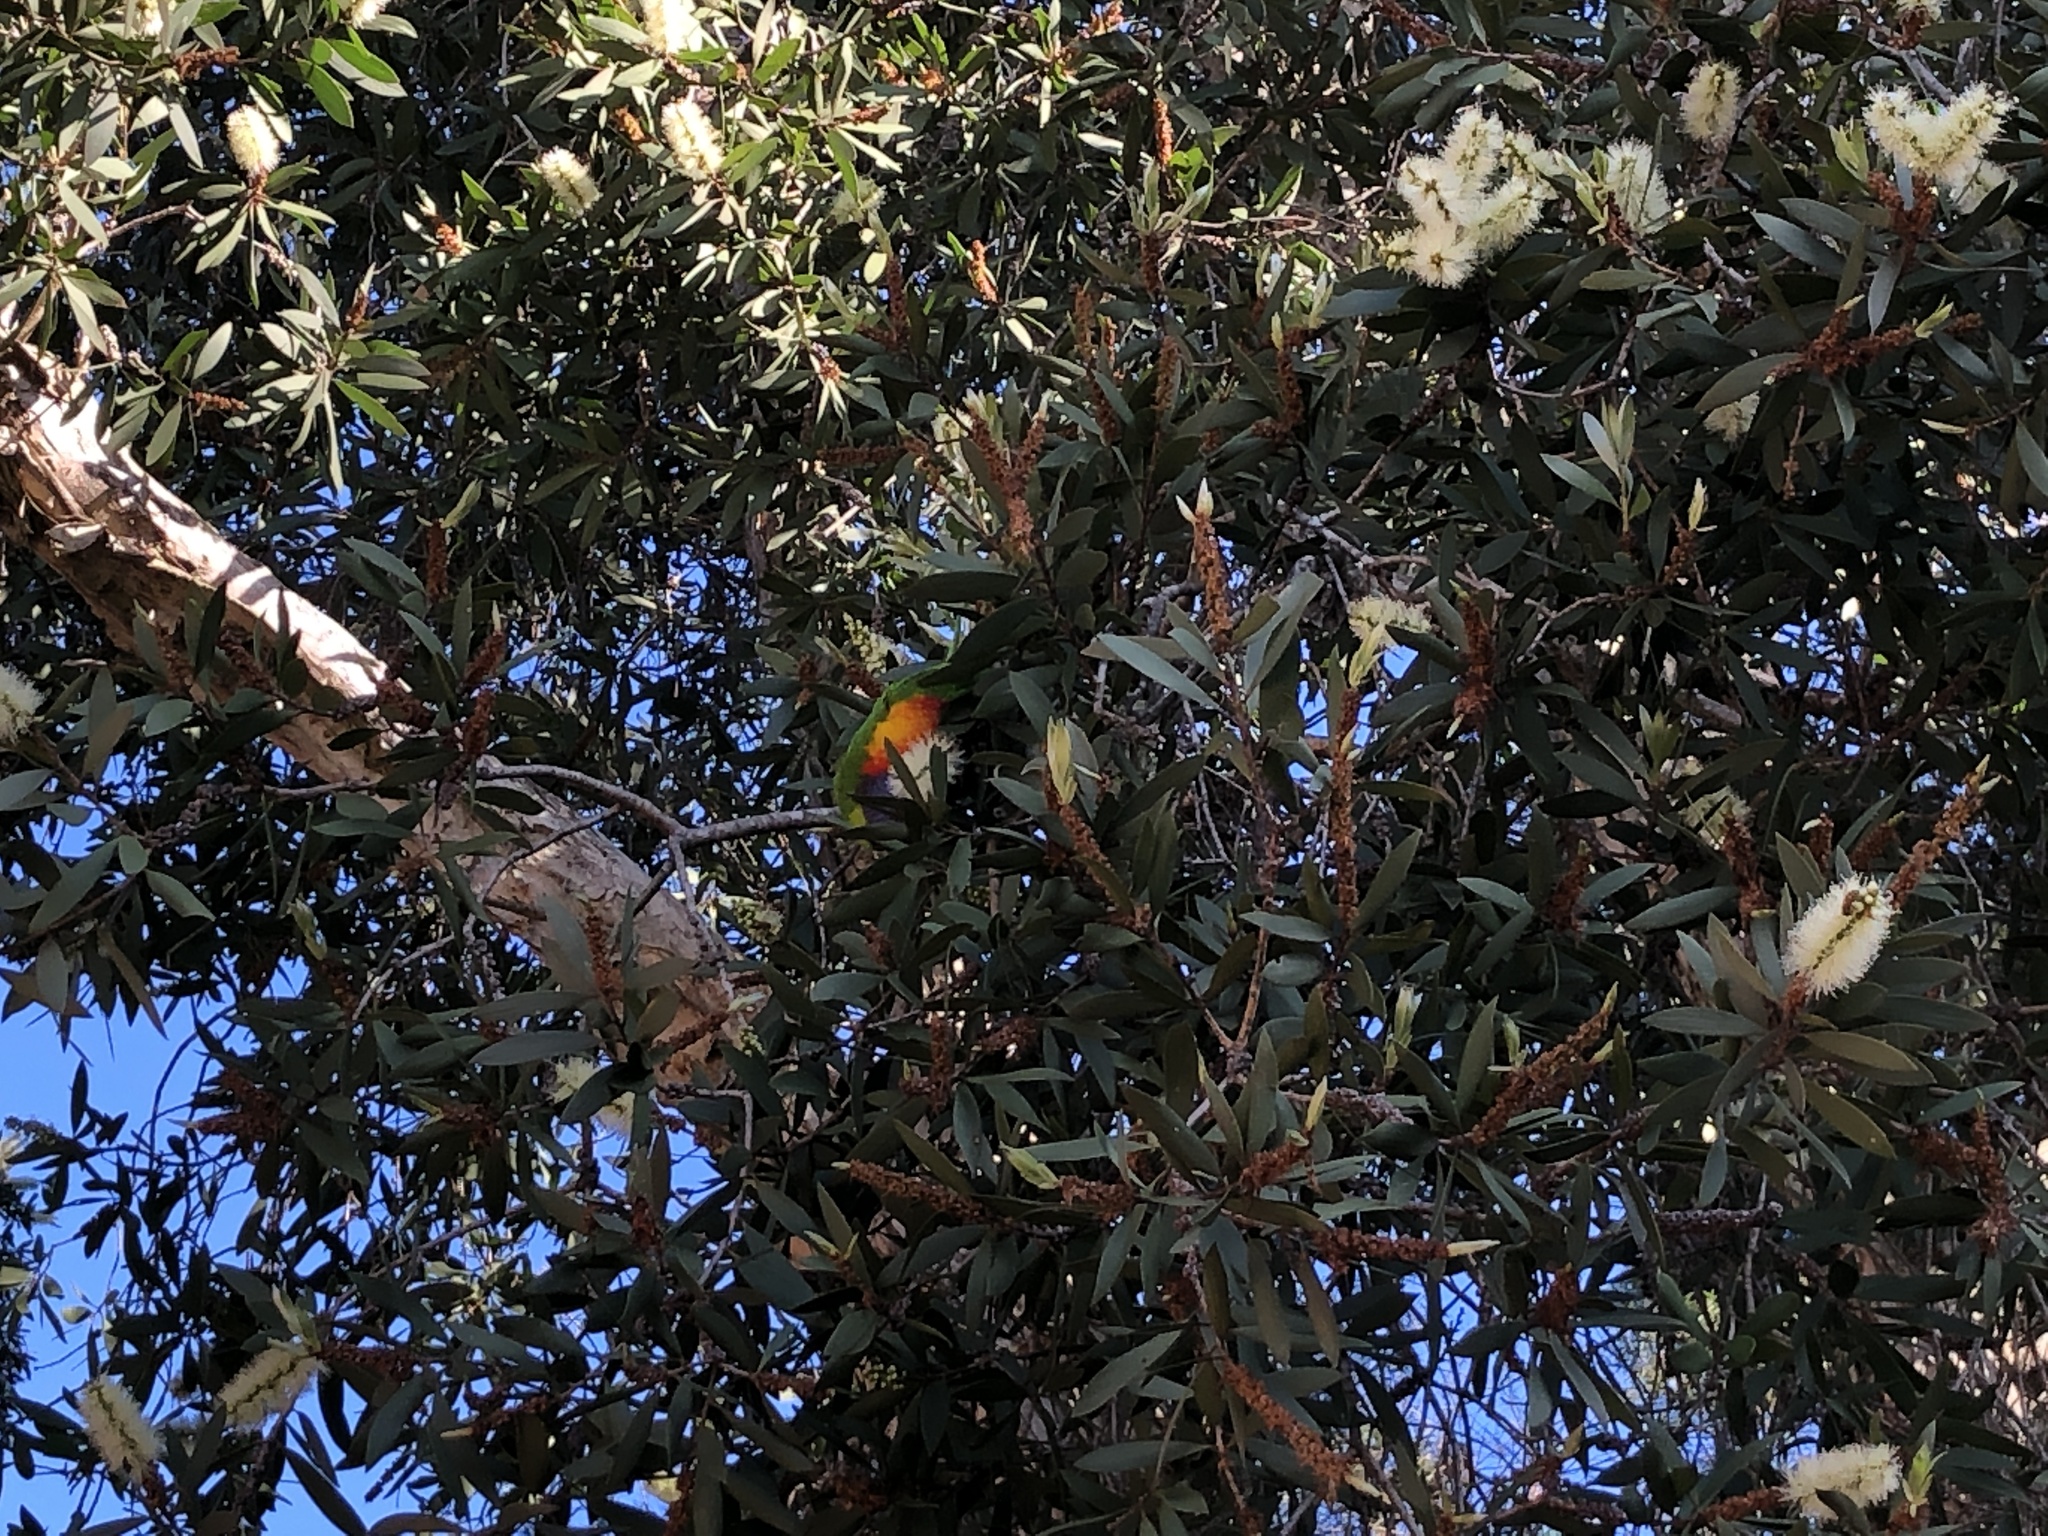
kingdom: Animalia
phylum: Chordata
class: Aves
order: Psittaciformes
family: Psittacidae
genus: Trichoglossus
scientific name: Trichoglossus haematodus
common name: Coconut lorikeet
